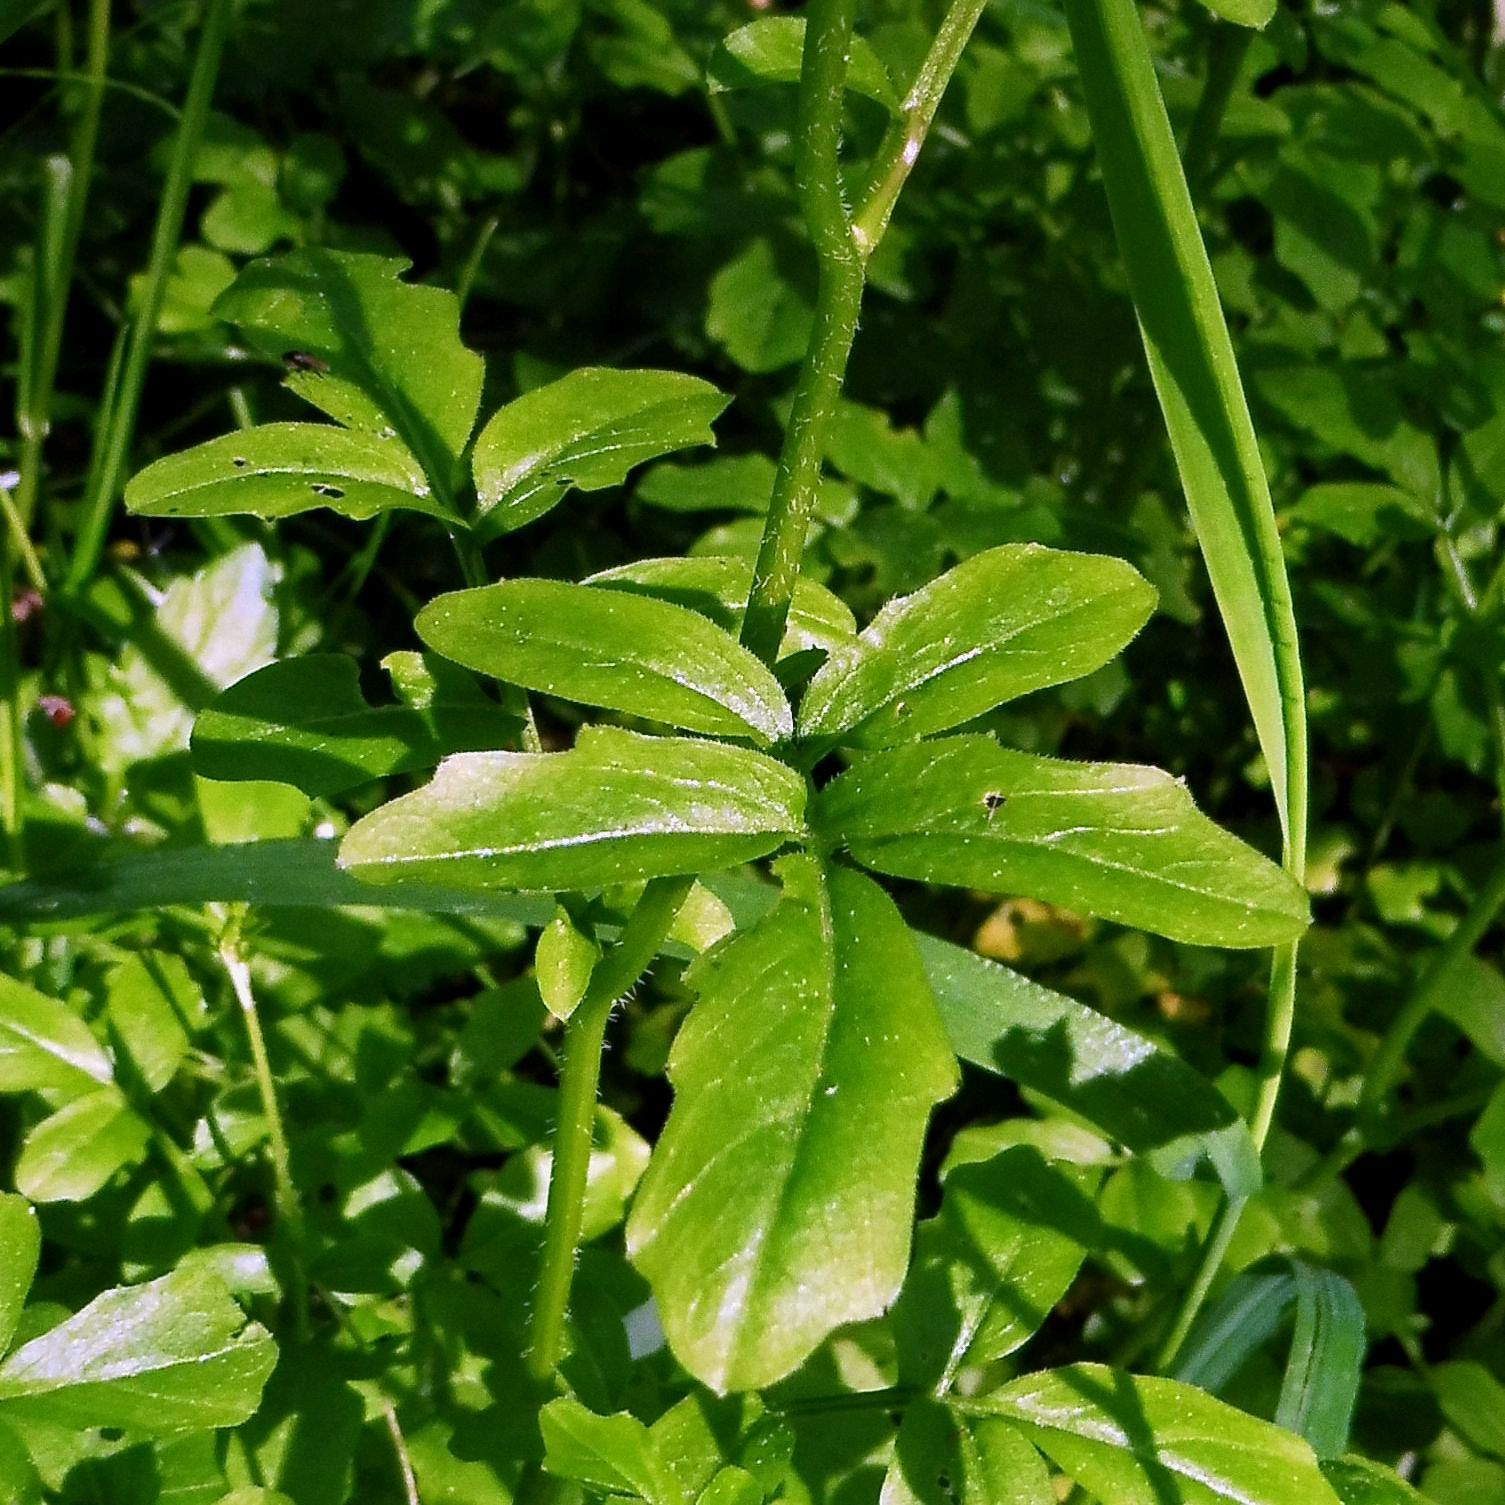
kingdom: Plantae
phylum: Tracheophyta
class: Magnoliopsida
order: Brassicales
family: Brassicaceae
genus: Cardamine
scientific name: Cardamine amara
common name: Large bitter-cress
